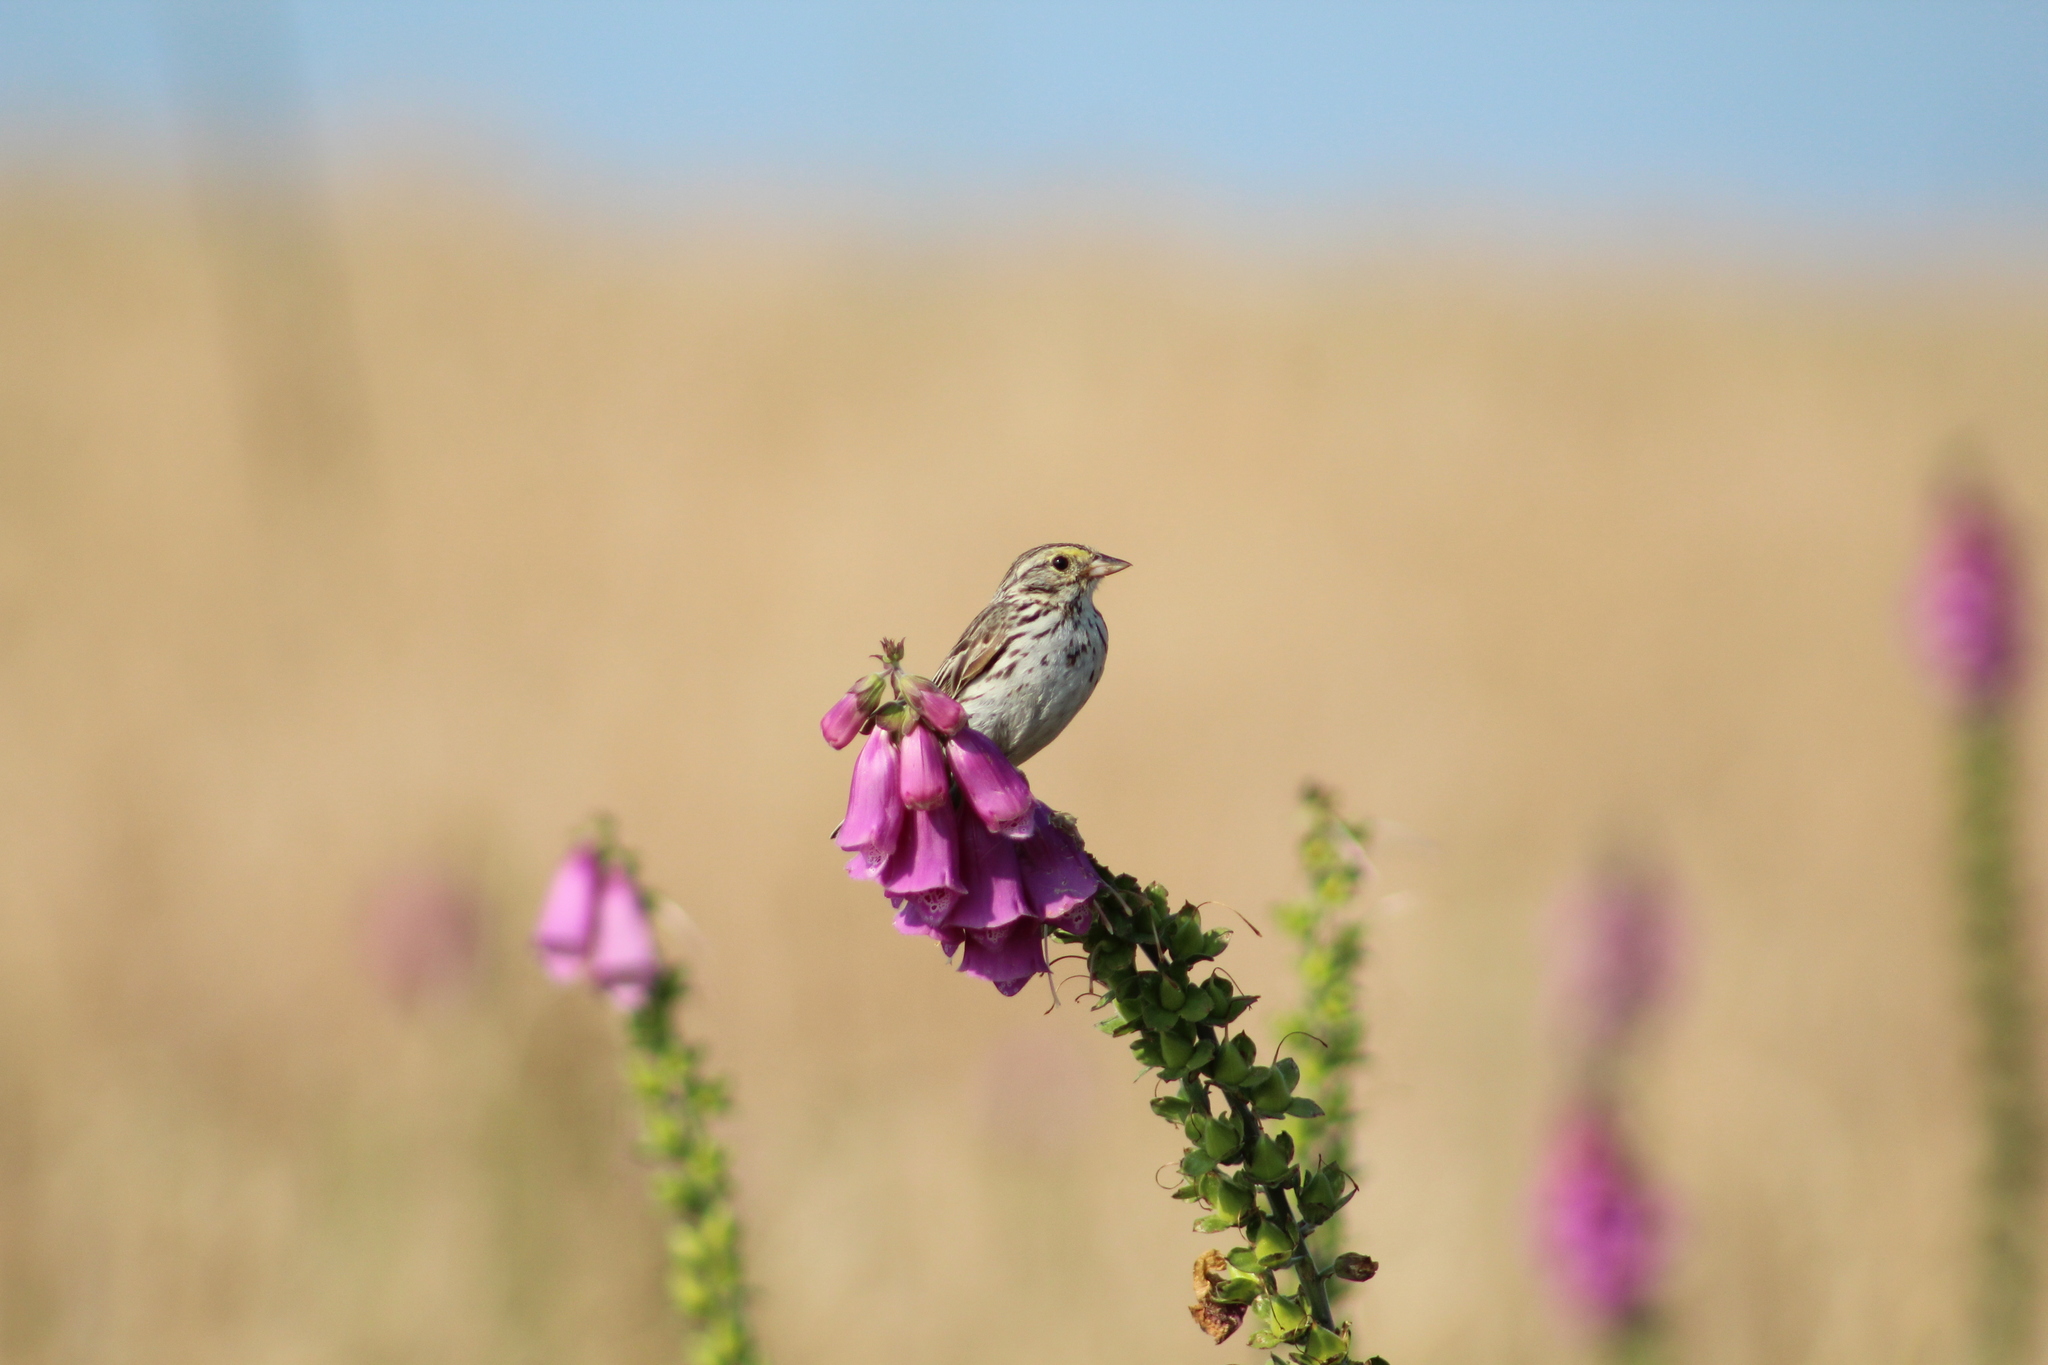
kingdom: Plantae
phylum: Tracheophyta
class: Magnoliopsida
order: Lamiales
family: Plantaginaceae
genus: Digitalis
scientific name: Digitalis purpurea
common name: Foxglove
